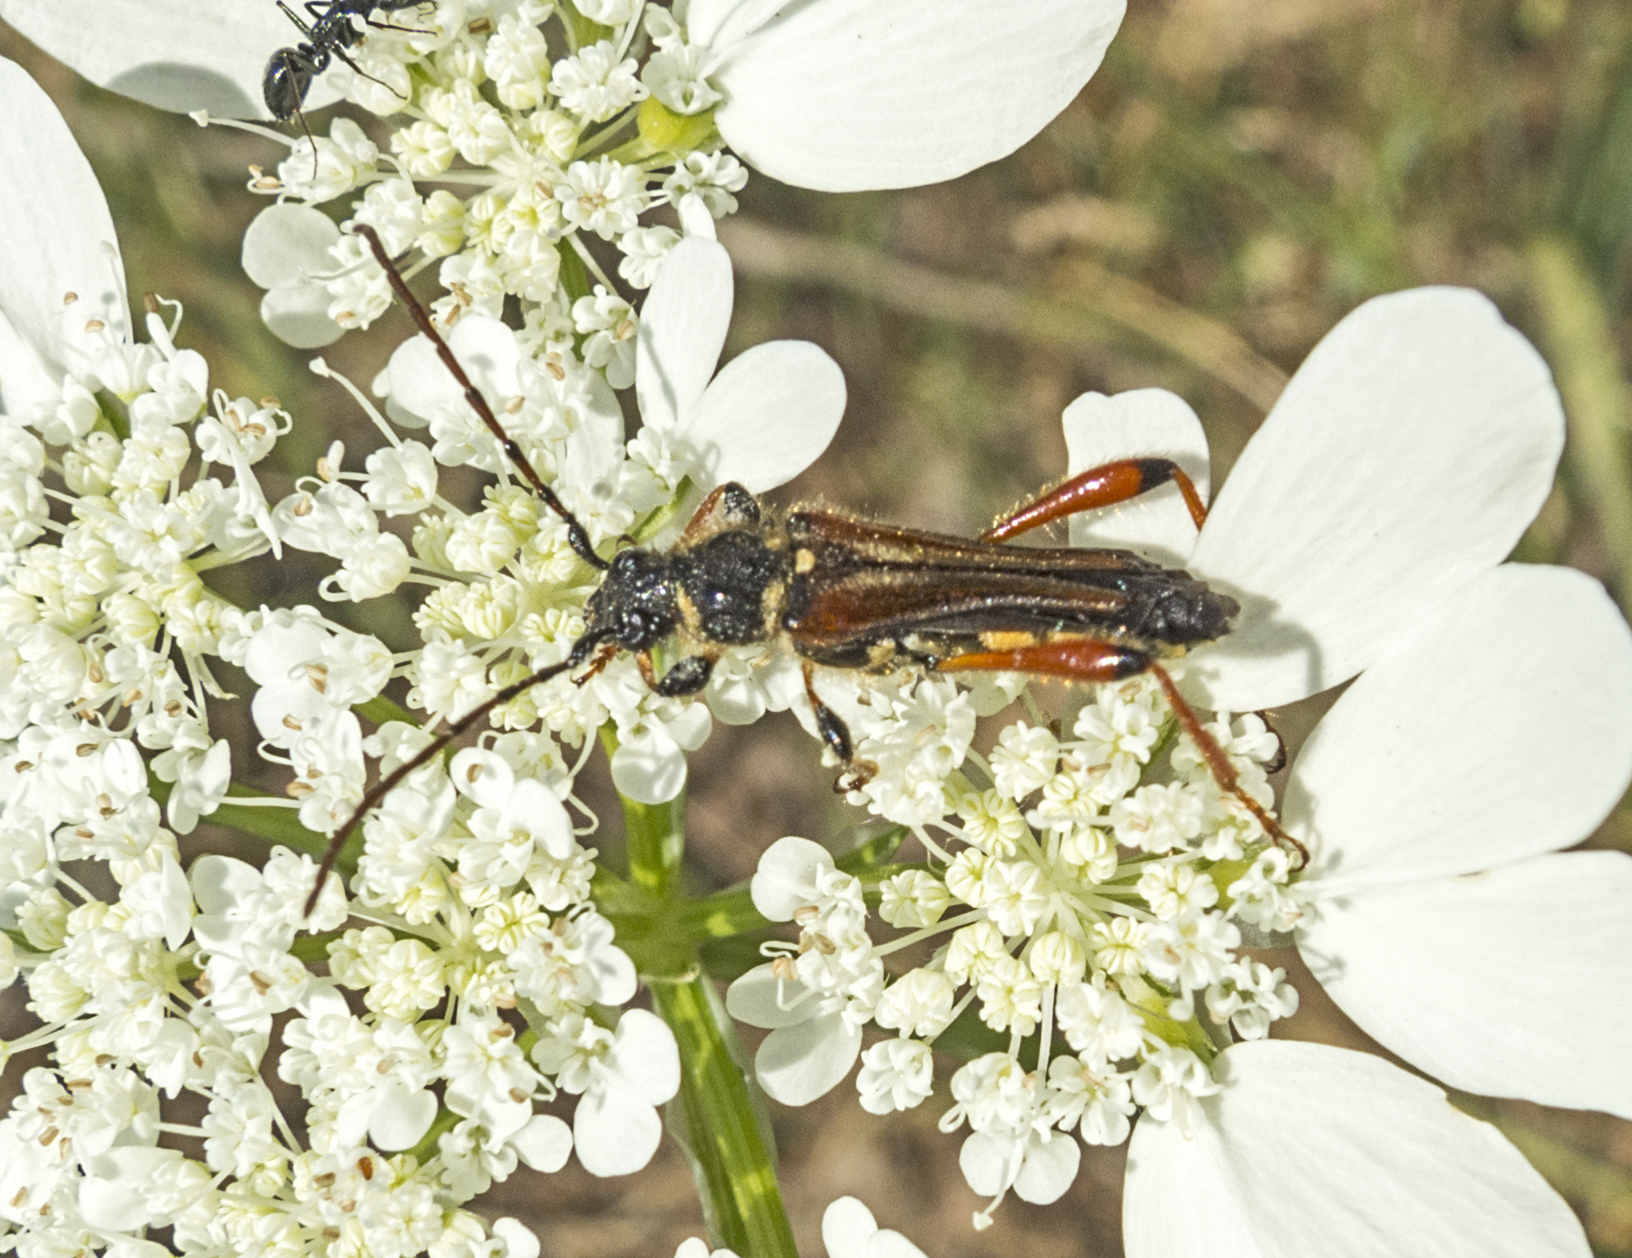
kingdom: Animalia
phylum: Arthropoda
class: Insecta
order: Coleoptera
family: Cerambycidae
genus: Stenopterus
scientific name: Stenopterus rufus
